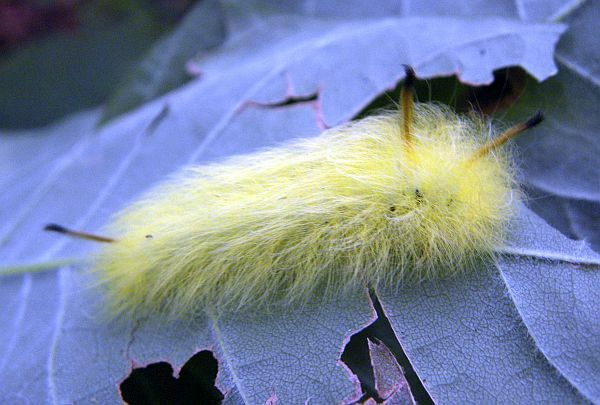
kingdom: Animalia
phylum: Arthropoda
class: Insecta
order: Lepidoptera
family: Apatelodidae
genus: Hygrochroa
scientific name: Hygrochroa Apatelodes torrefacta
